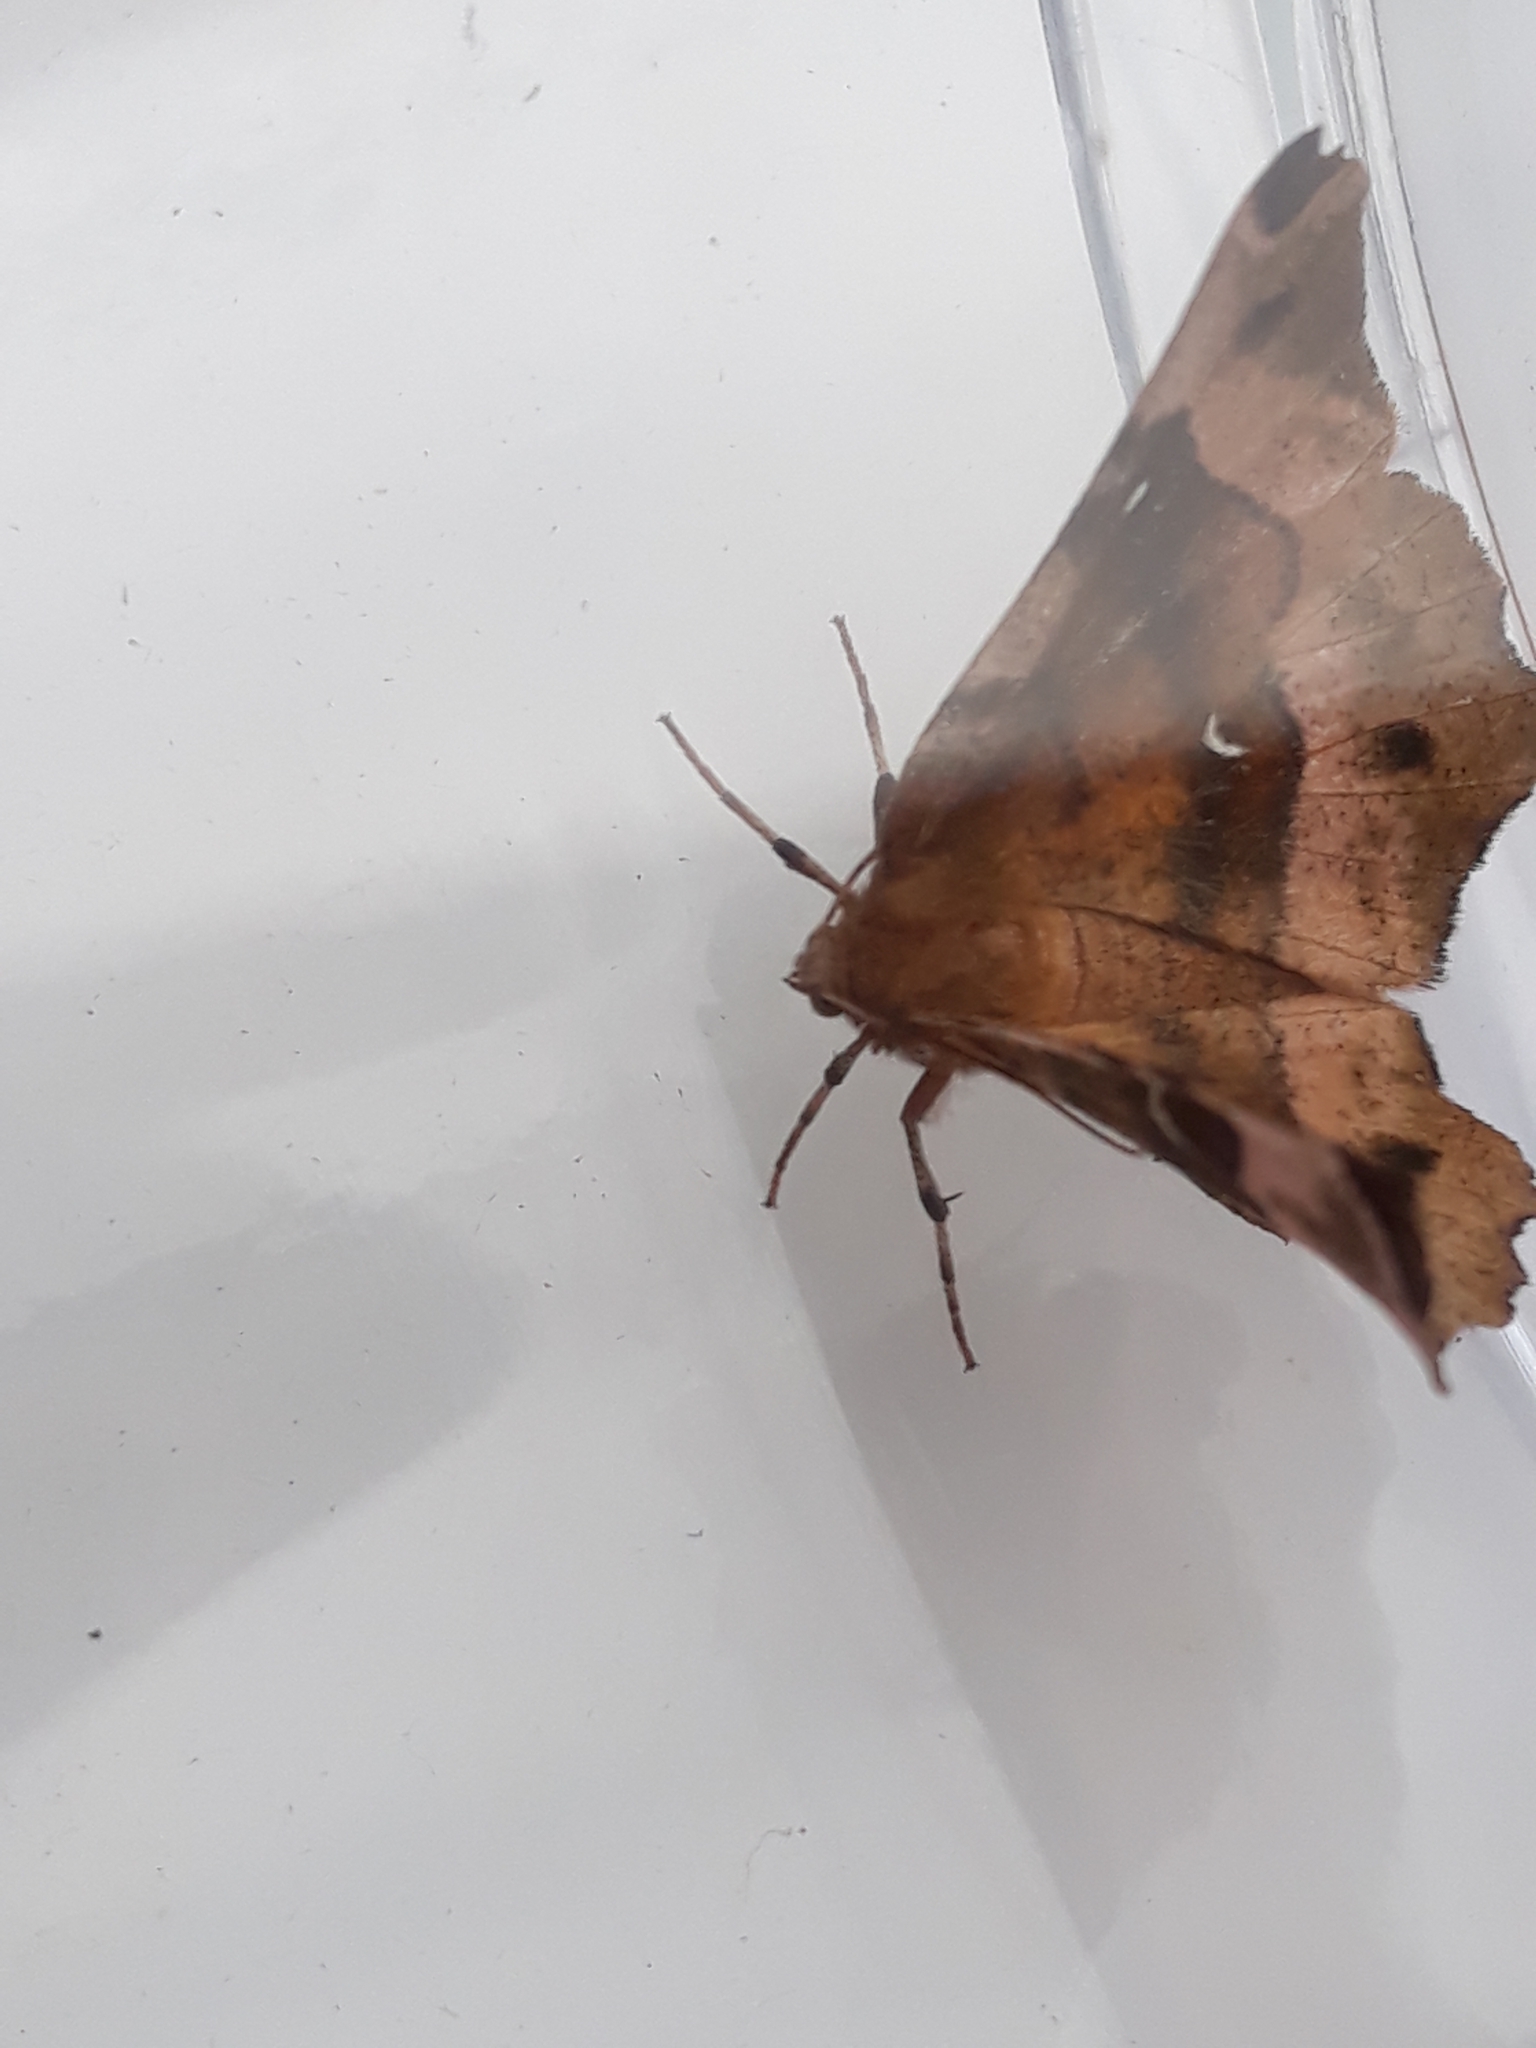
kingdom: Animalia
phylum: Arthropoda
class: Insecta
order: Lepidoptera
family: Geometridae
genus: Selenia
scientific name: Selenia tetralunaria
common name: Purple thorn
